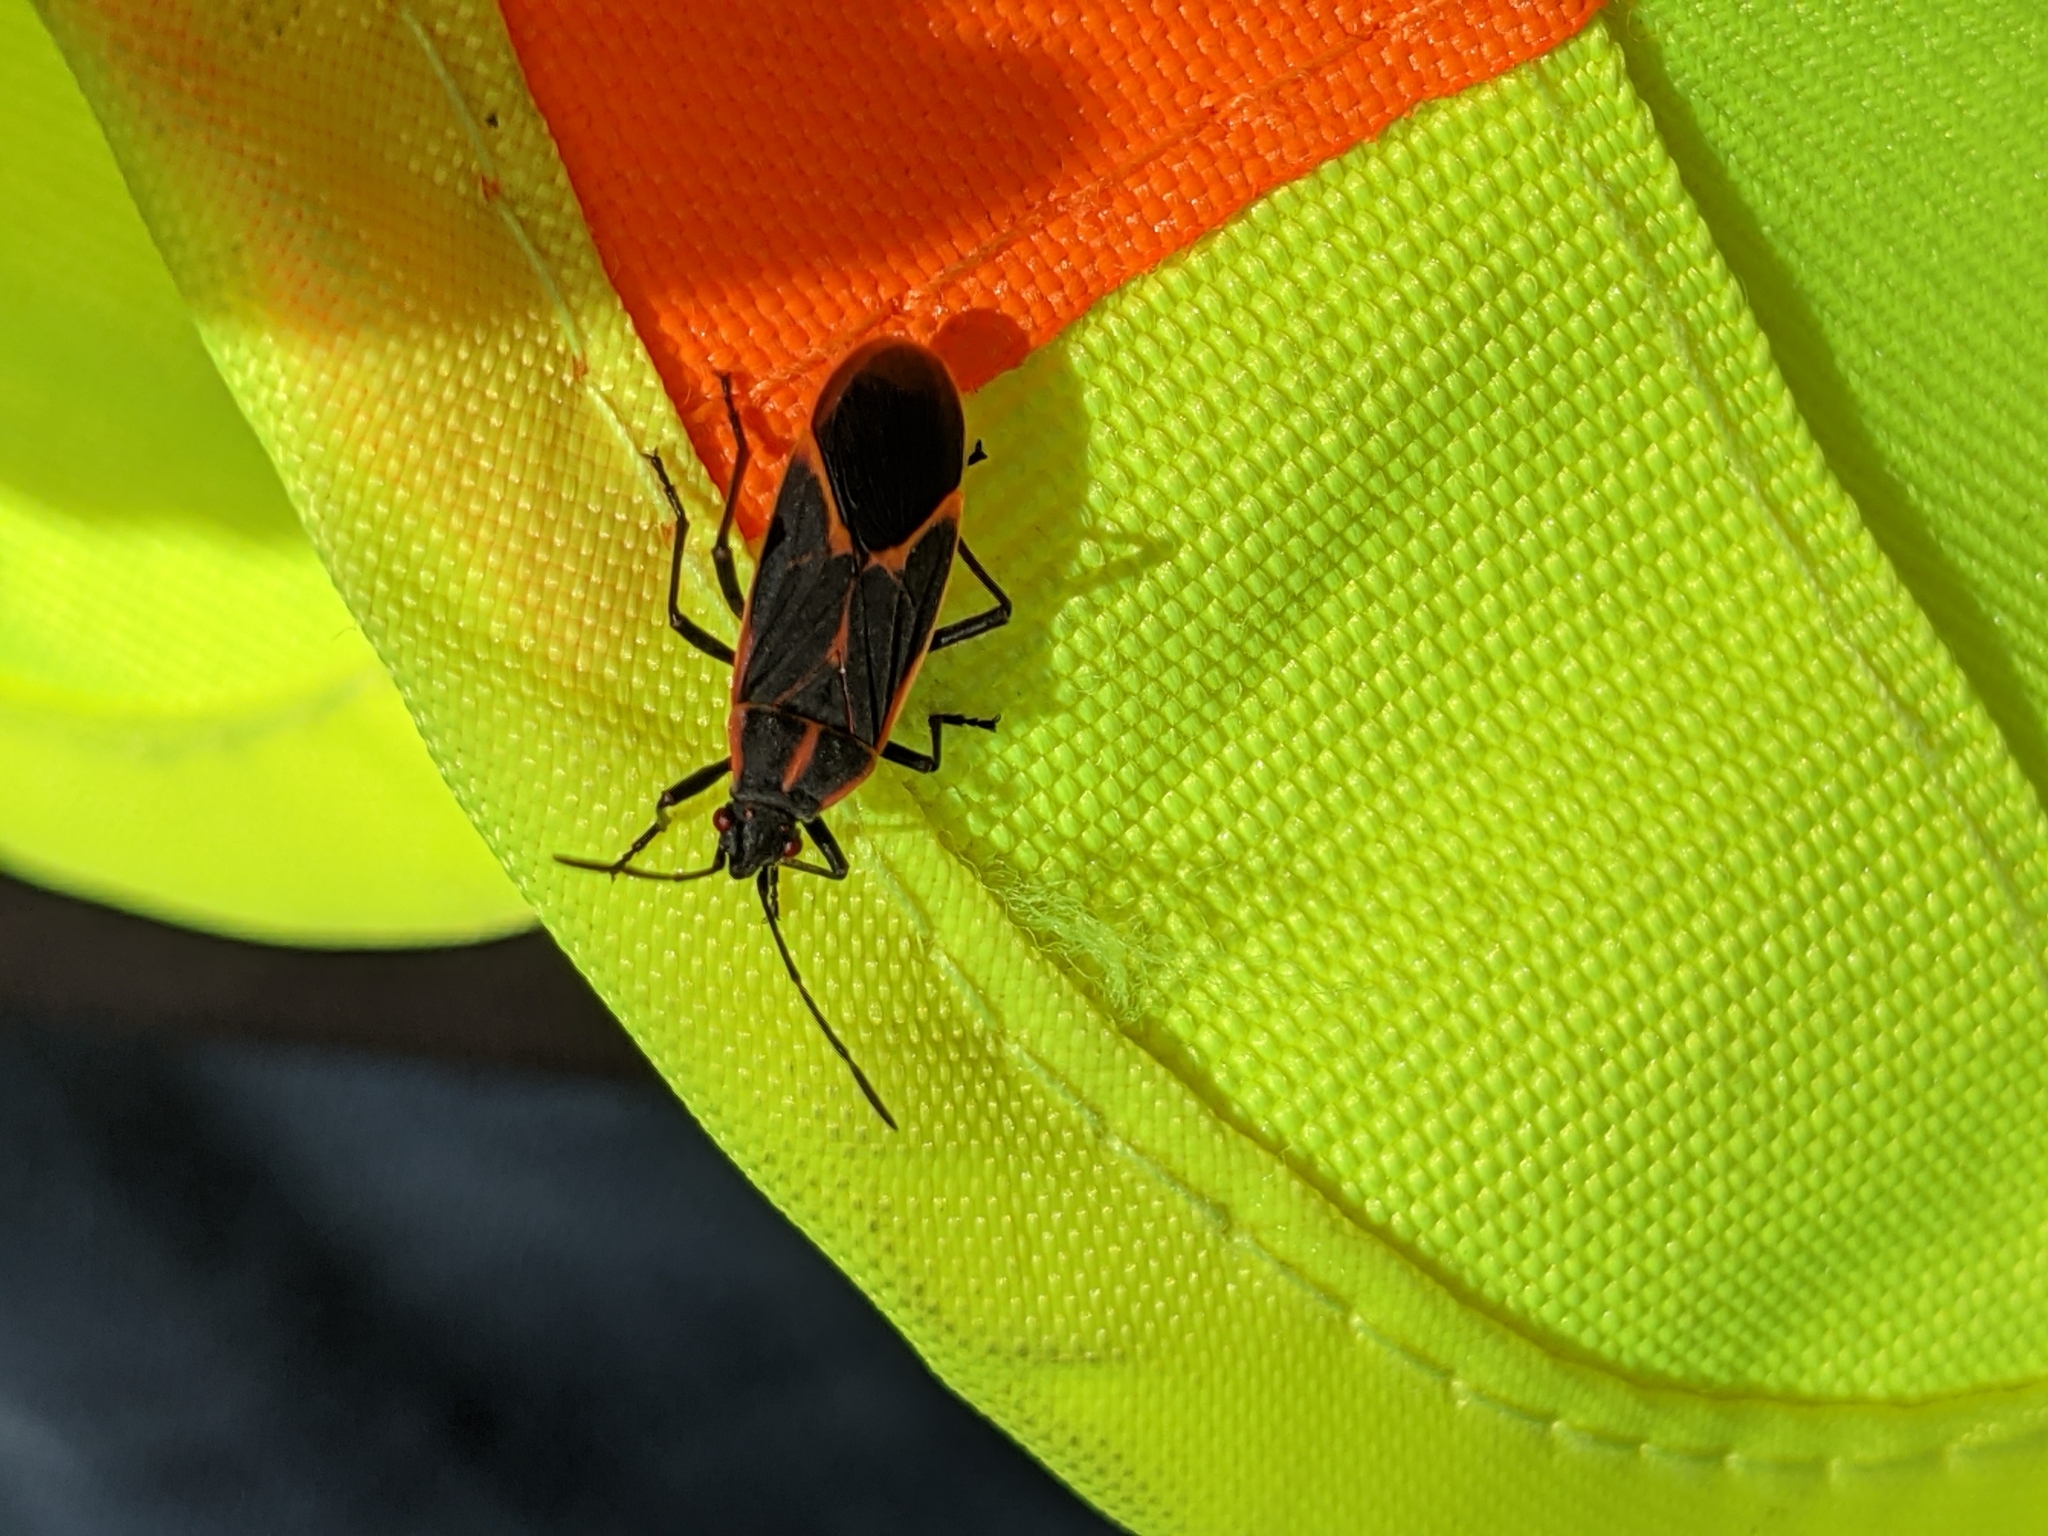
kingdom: Animalia
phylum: Arthropoda
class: Insecta
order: Hemiptera
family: Rhopalidae
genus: Boisea
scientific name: Boisea trivittata
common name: Boxelder bug
